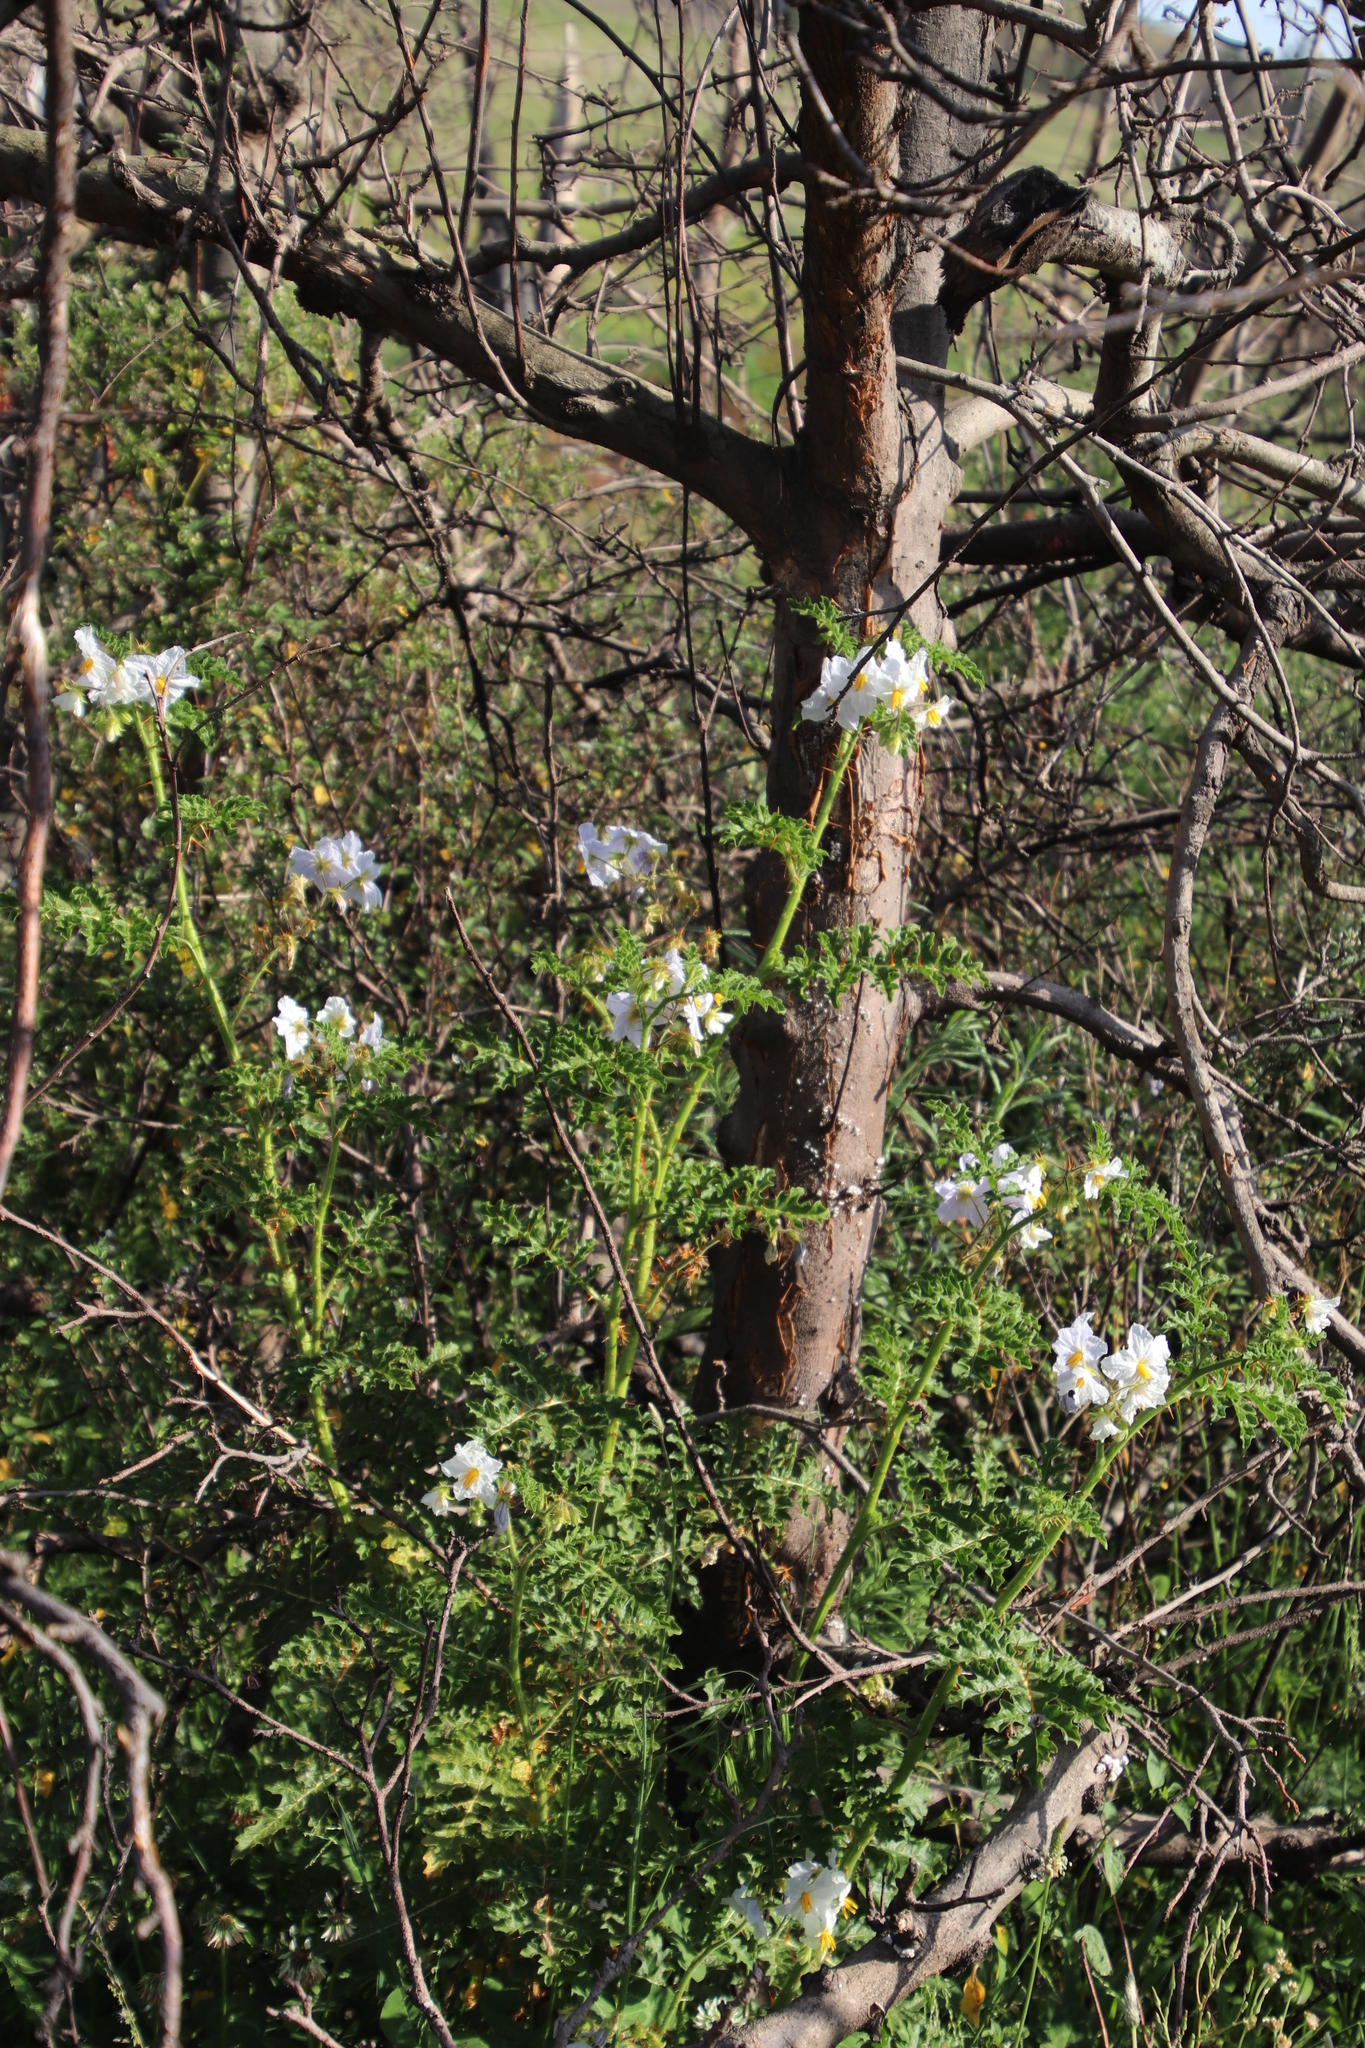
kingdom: Plantae
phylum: Tracheophyta
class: Magnoliopsida
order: Solanales
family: Solanaceae
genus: Solanum
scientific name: Solanum sisymbriifolium
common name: Red buffalo-bur
